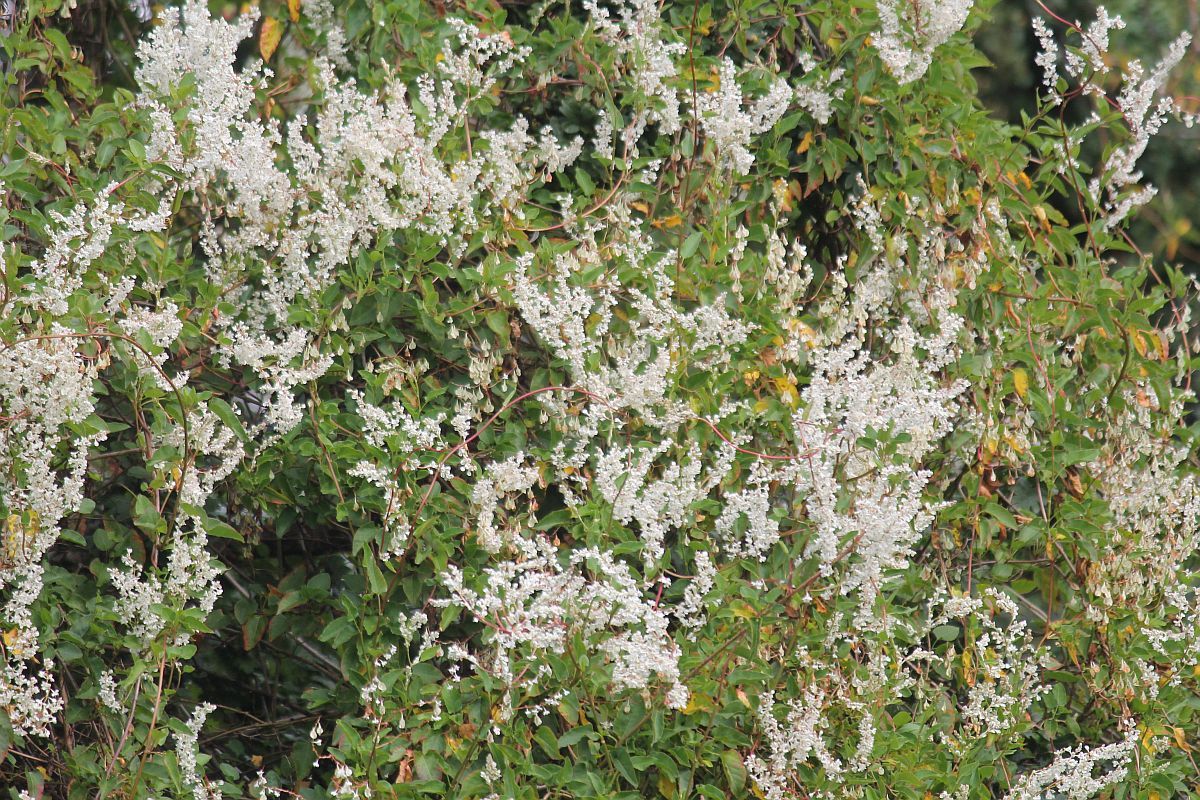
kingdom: Plantae
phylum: Tracheophyta
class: Magnoliopsida
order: Caryophyllales
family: Polygonaceae
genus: Fallopia
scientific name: Fallopia baldschuanica
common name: Russian-vine
